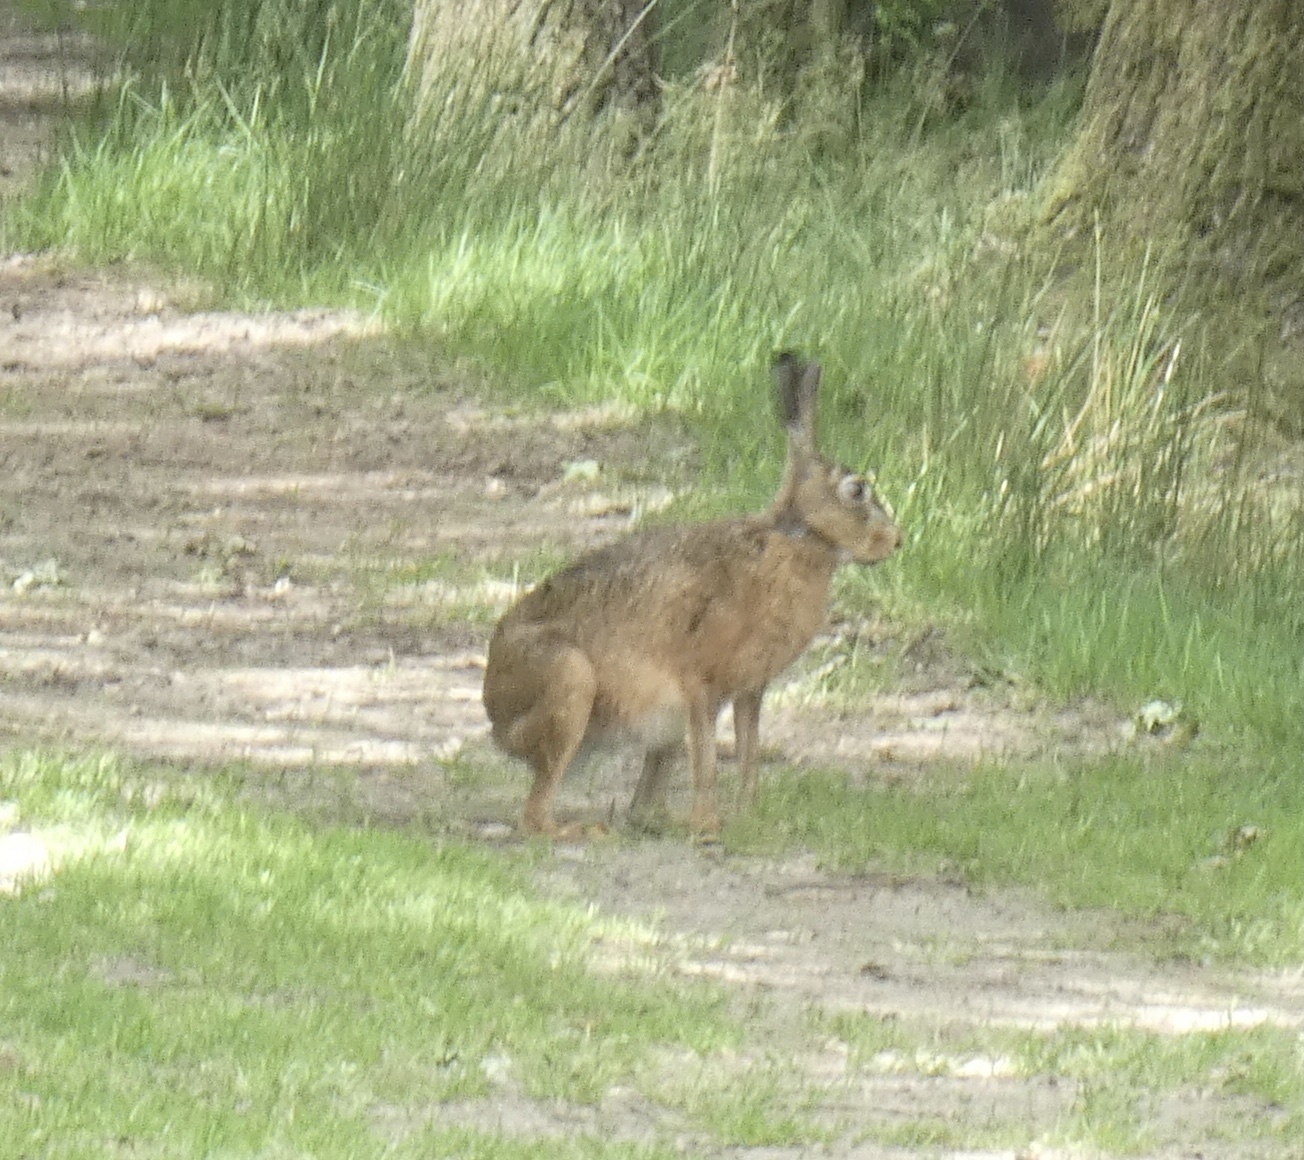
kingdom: Animalia
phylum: Chordata
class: Mammalia
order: Lagomorpha
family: Leporidae
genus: Lepus
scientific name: Lepus europaeus
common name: European hare
